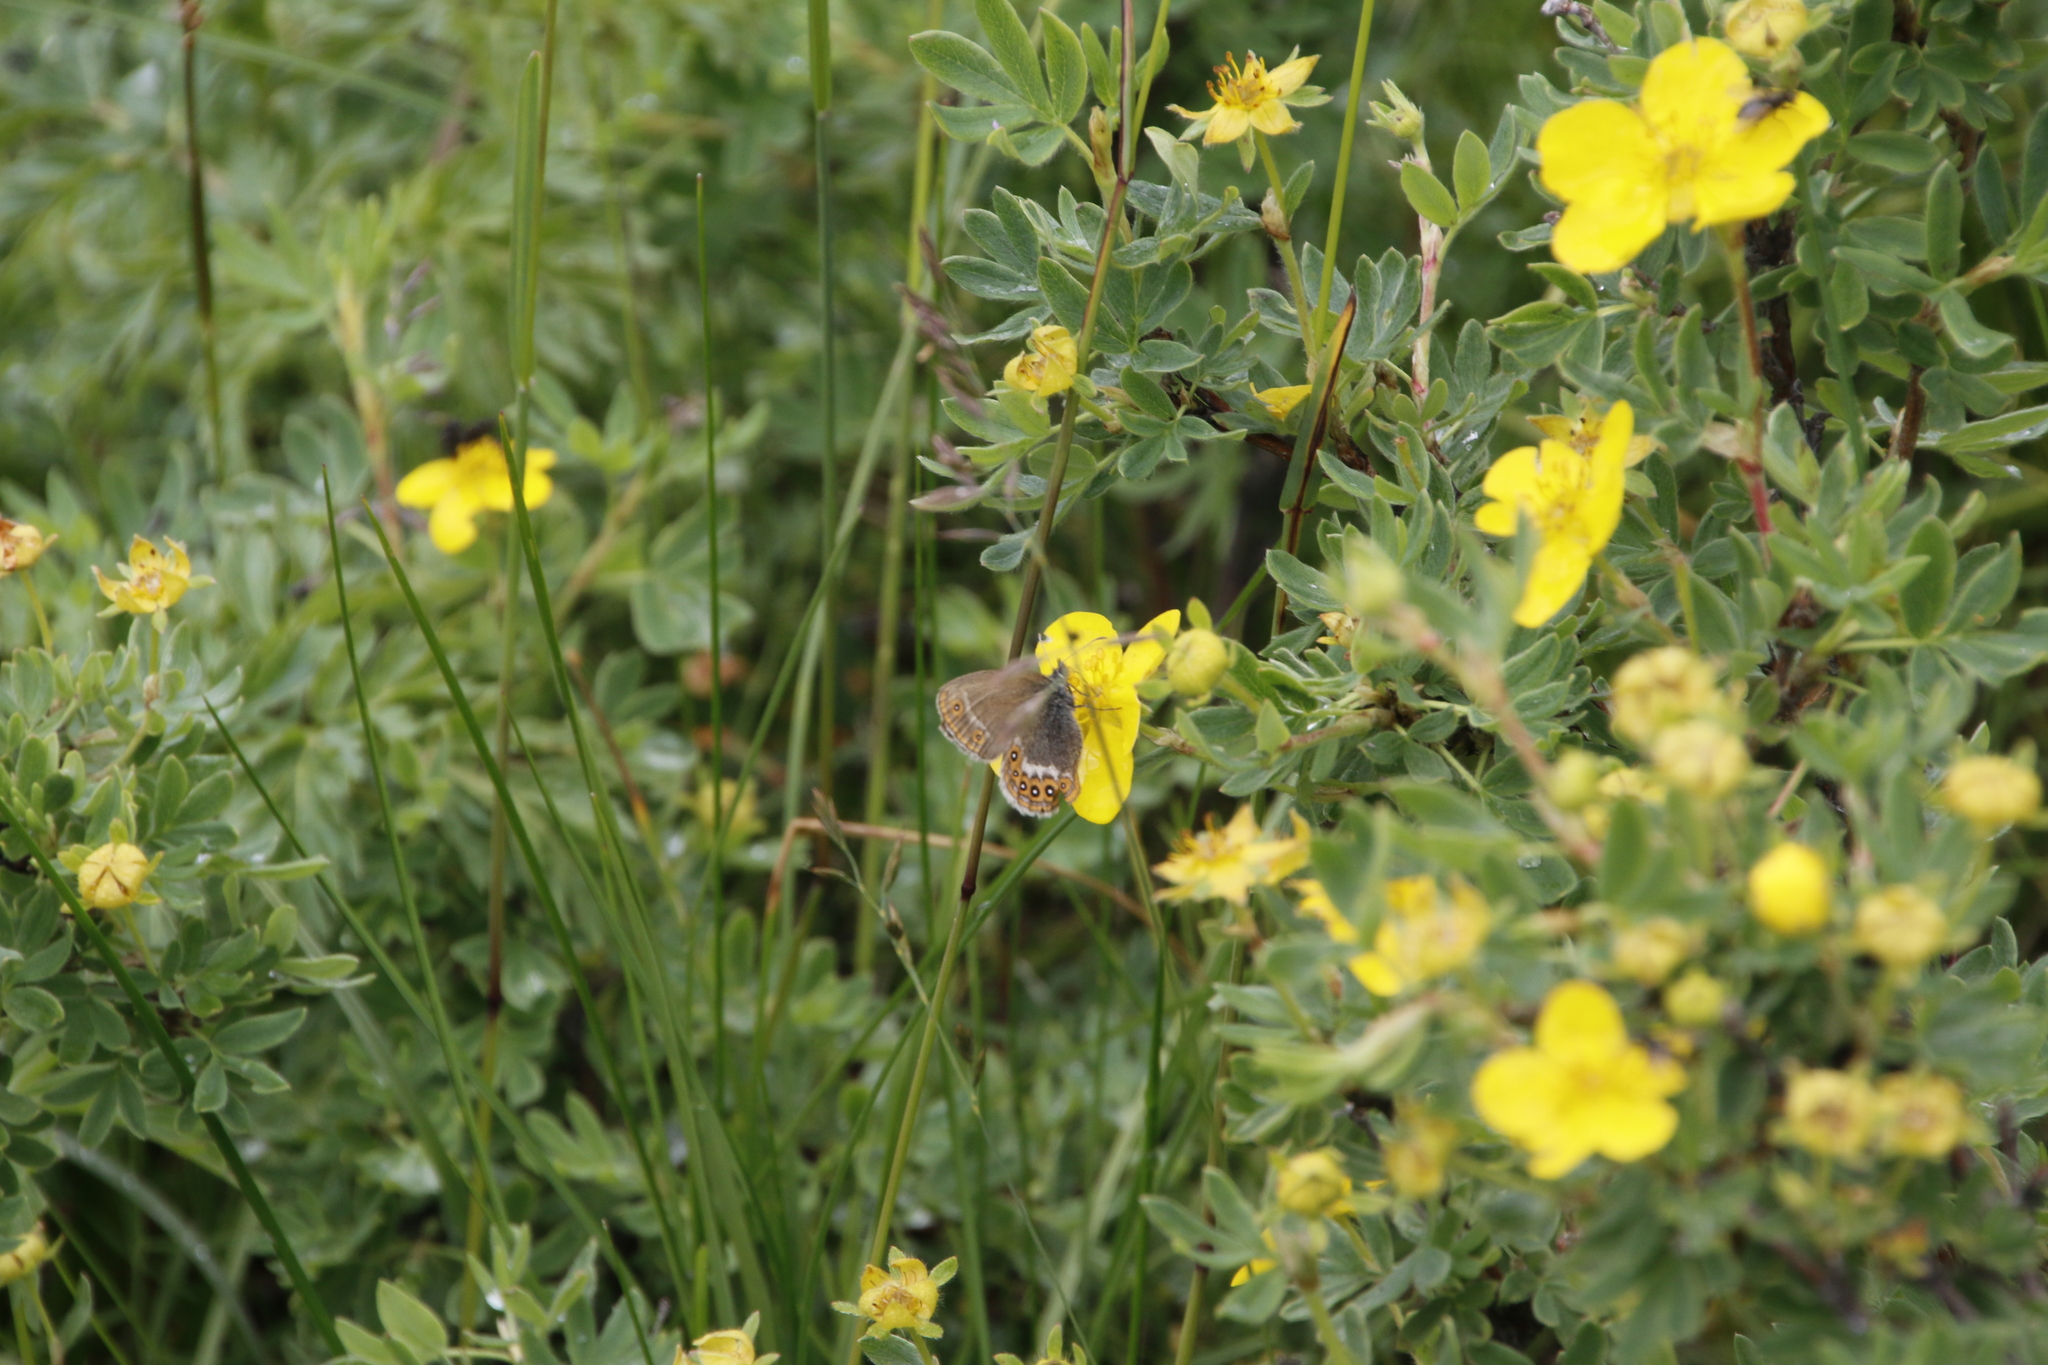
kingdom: Animalia
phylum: Arthropoda
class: Insecta
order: Lepidoptera
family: Nymphalidae
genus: Coenonympha
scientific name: Coenonympha hero
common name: Scarce heath
